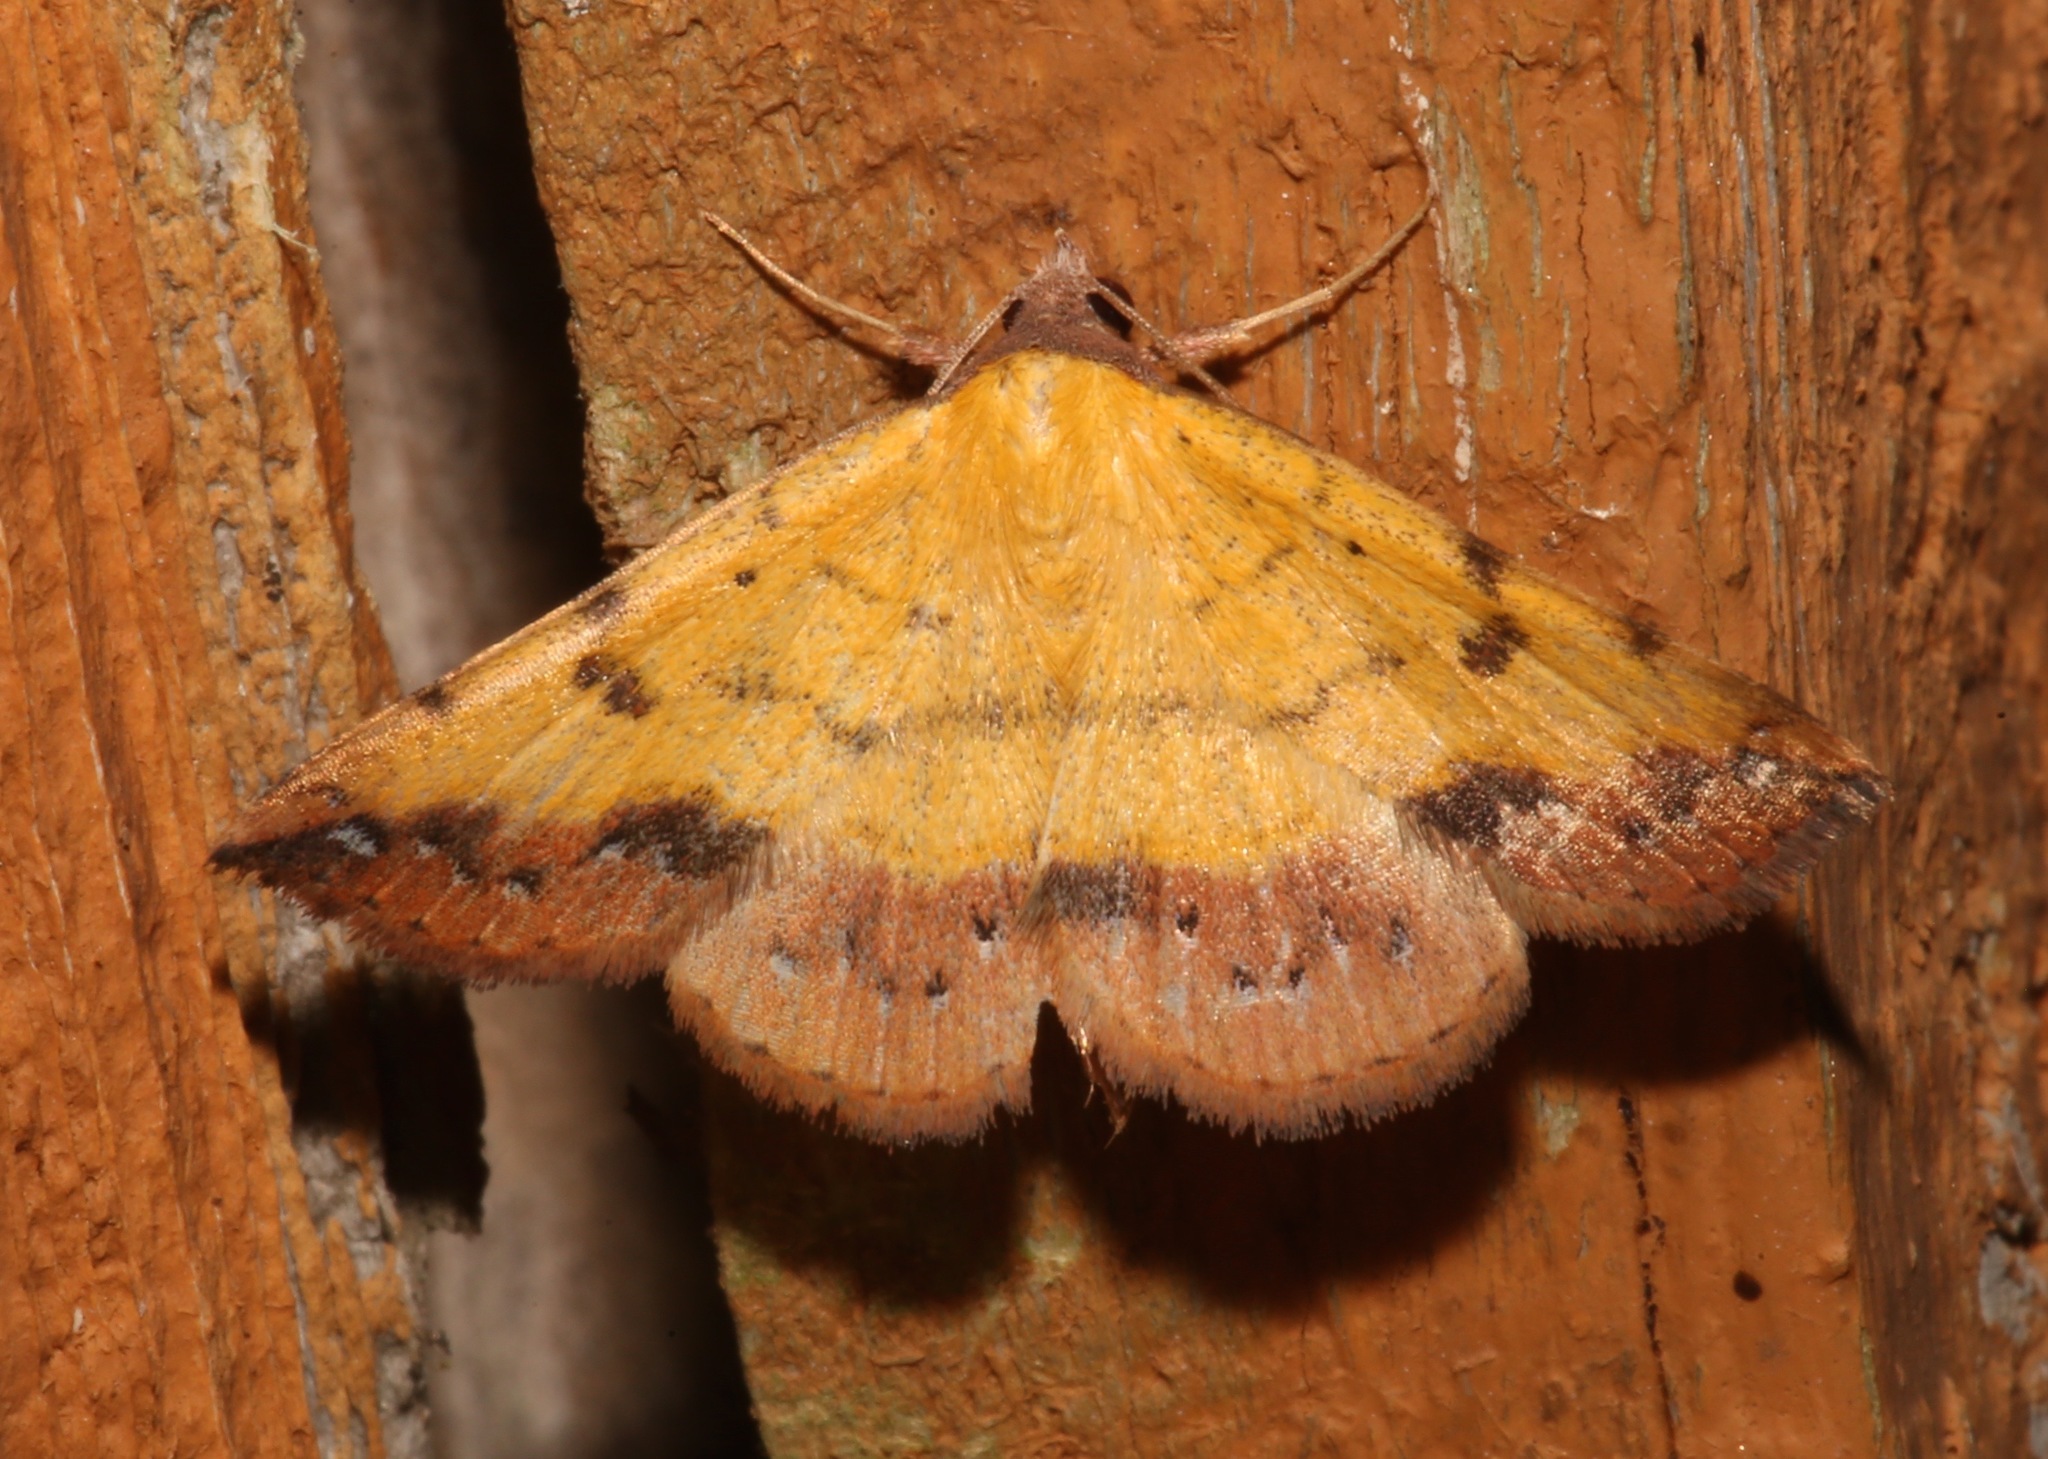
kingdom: Animalia
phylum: Arthropoda
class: Insecta
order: Lepidoptera
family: Erebidae
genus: Hemeroplanis
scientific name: Hemeroplanis scopulepes
